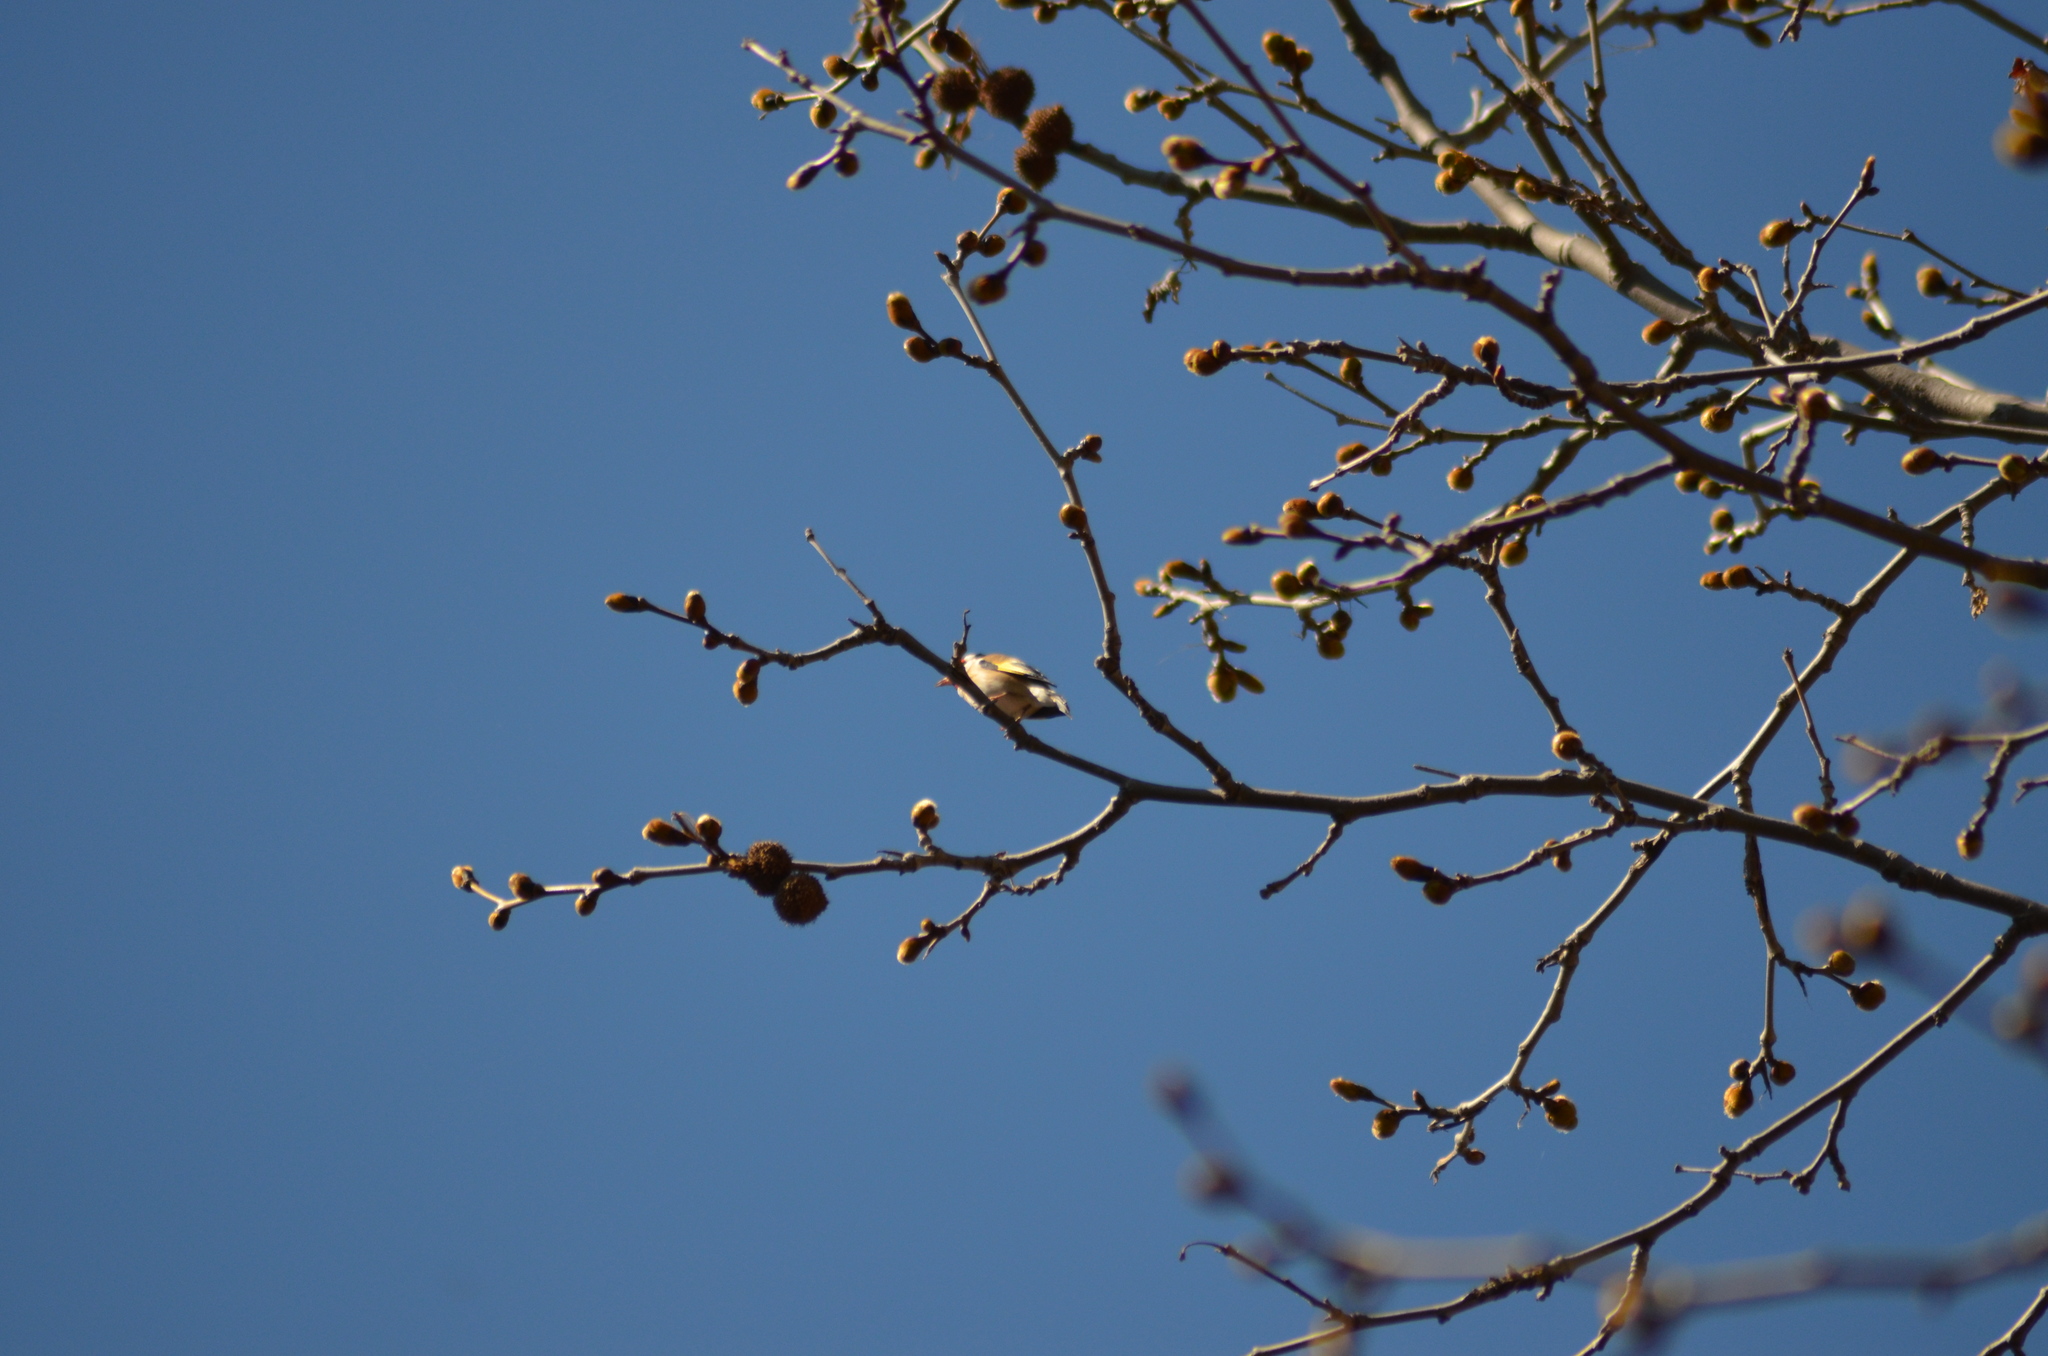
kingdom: Animalia
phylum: Chordata
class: Aves
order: Passeriformes
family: Fringillidae
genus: Carduelis
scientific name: Carduelis carduelis
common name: European goldfinch
